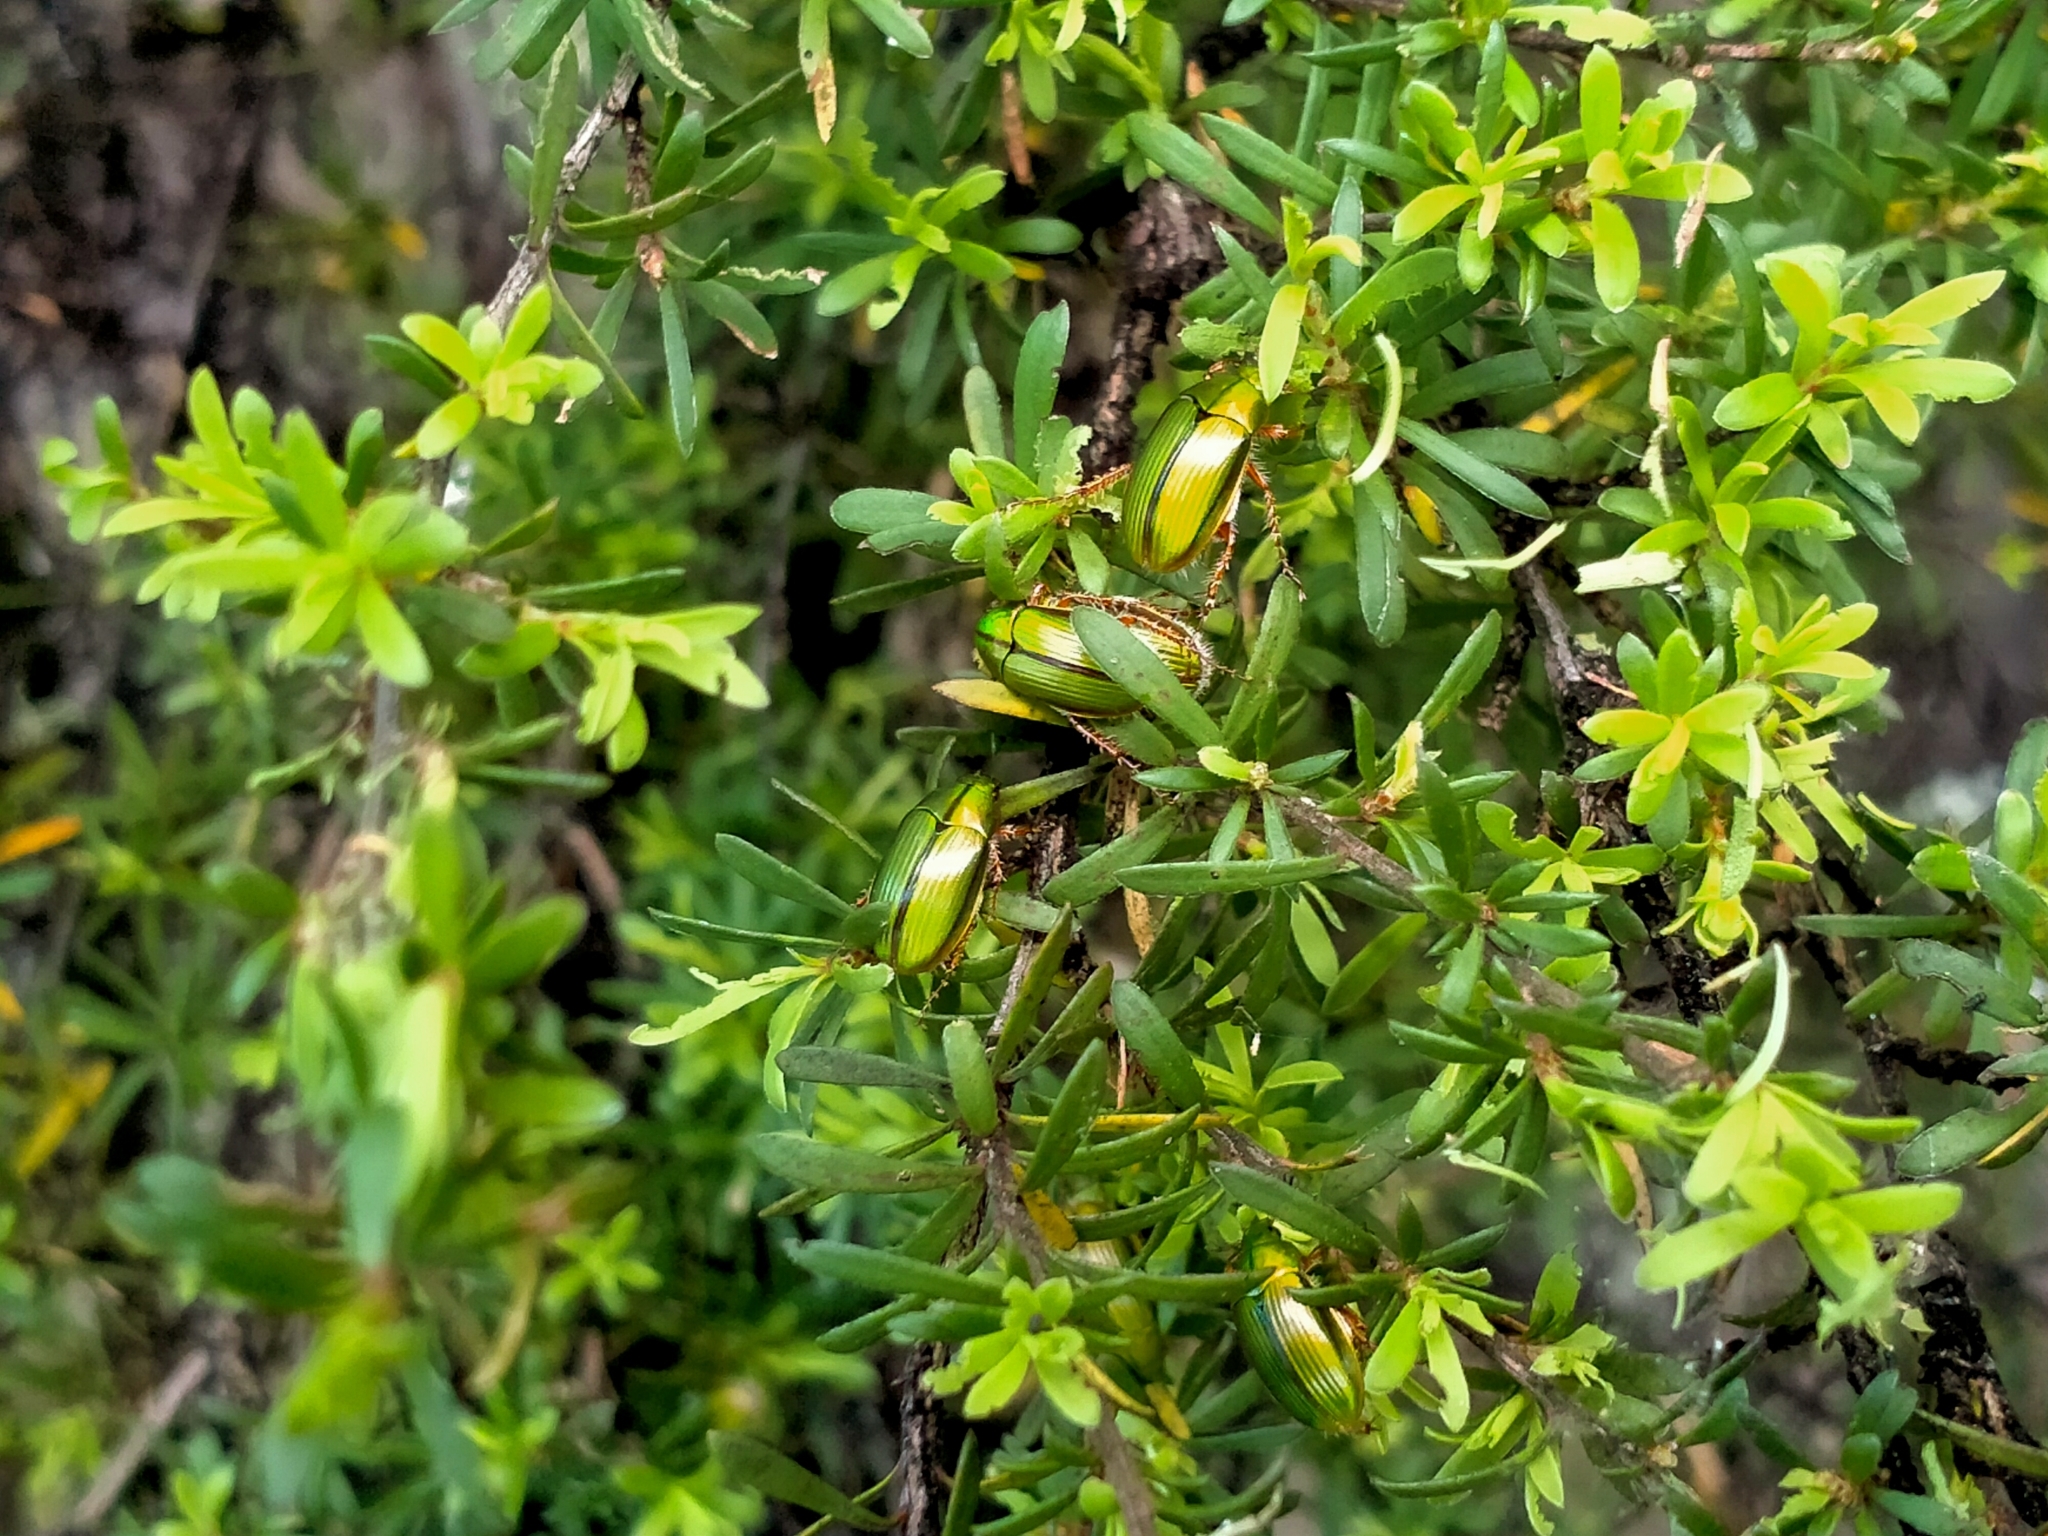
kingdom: Animalia
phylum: Arthropoda
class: Insecta
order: Coleoptera
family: Scarabaeidae
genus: Pyronota
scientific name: Pyronota festiva
